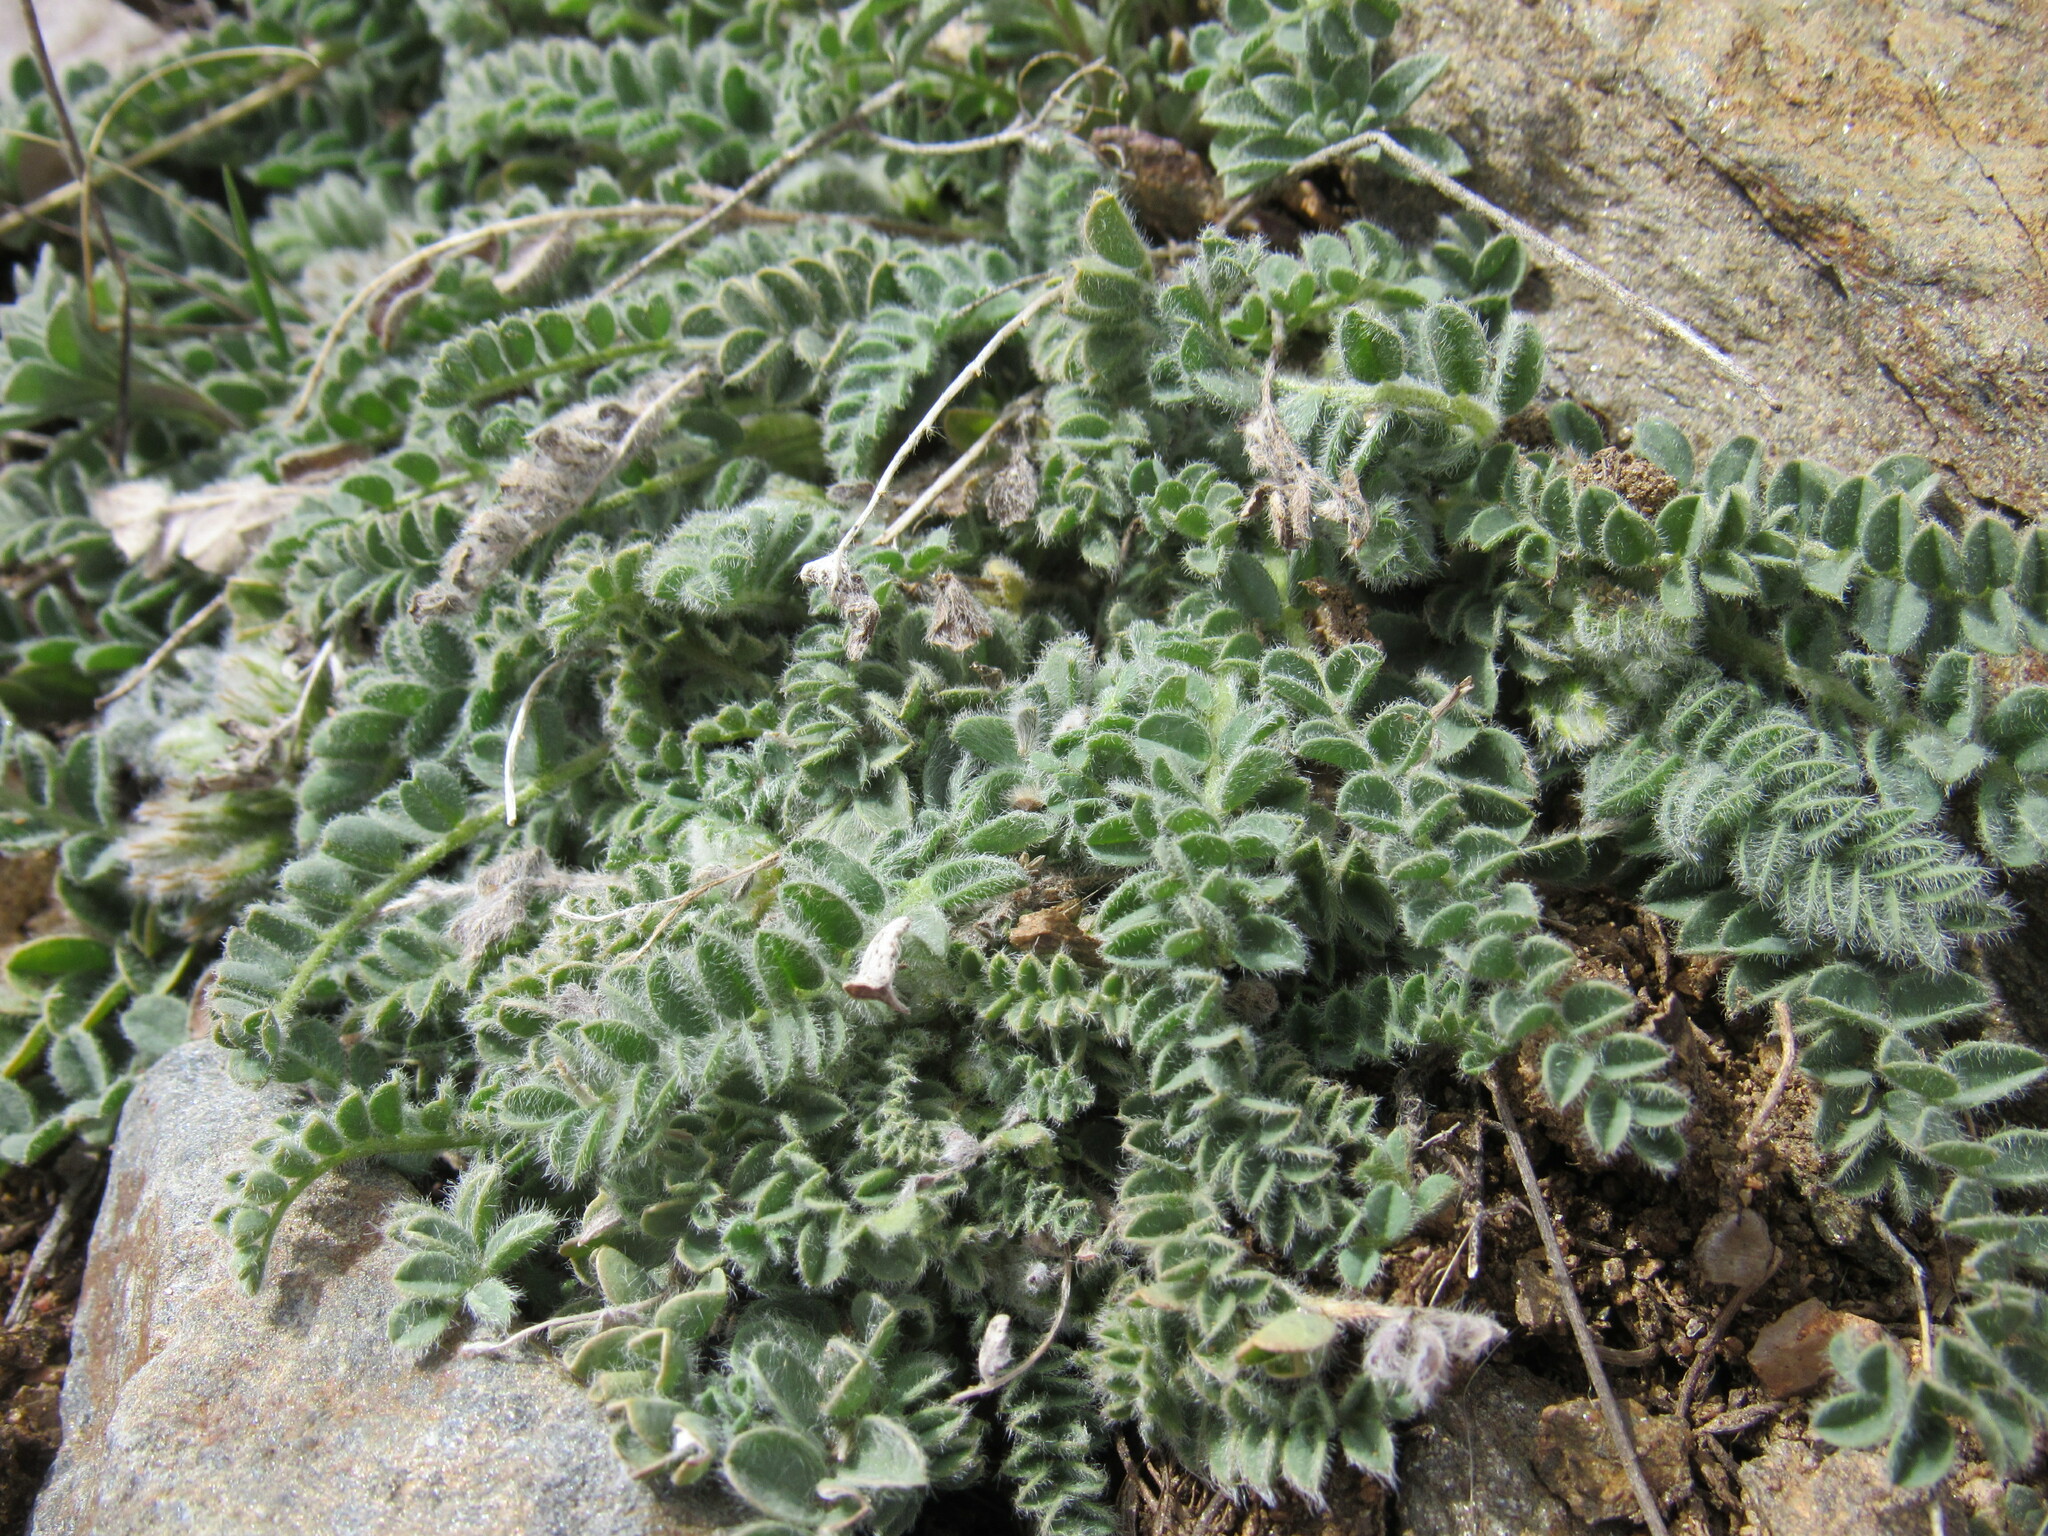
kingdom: Plantae
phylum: Tracheophyta
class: Magnoliopsida
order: Fabales
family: Fabaceae
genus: Astragalus
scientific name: Astragalus parryi
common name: Parry milk-vetch
